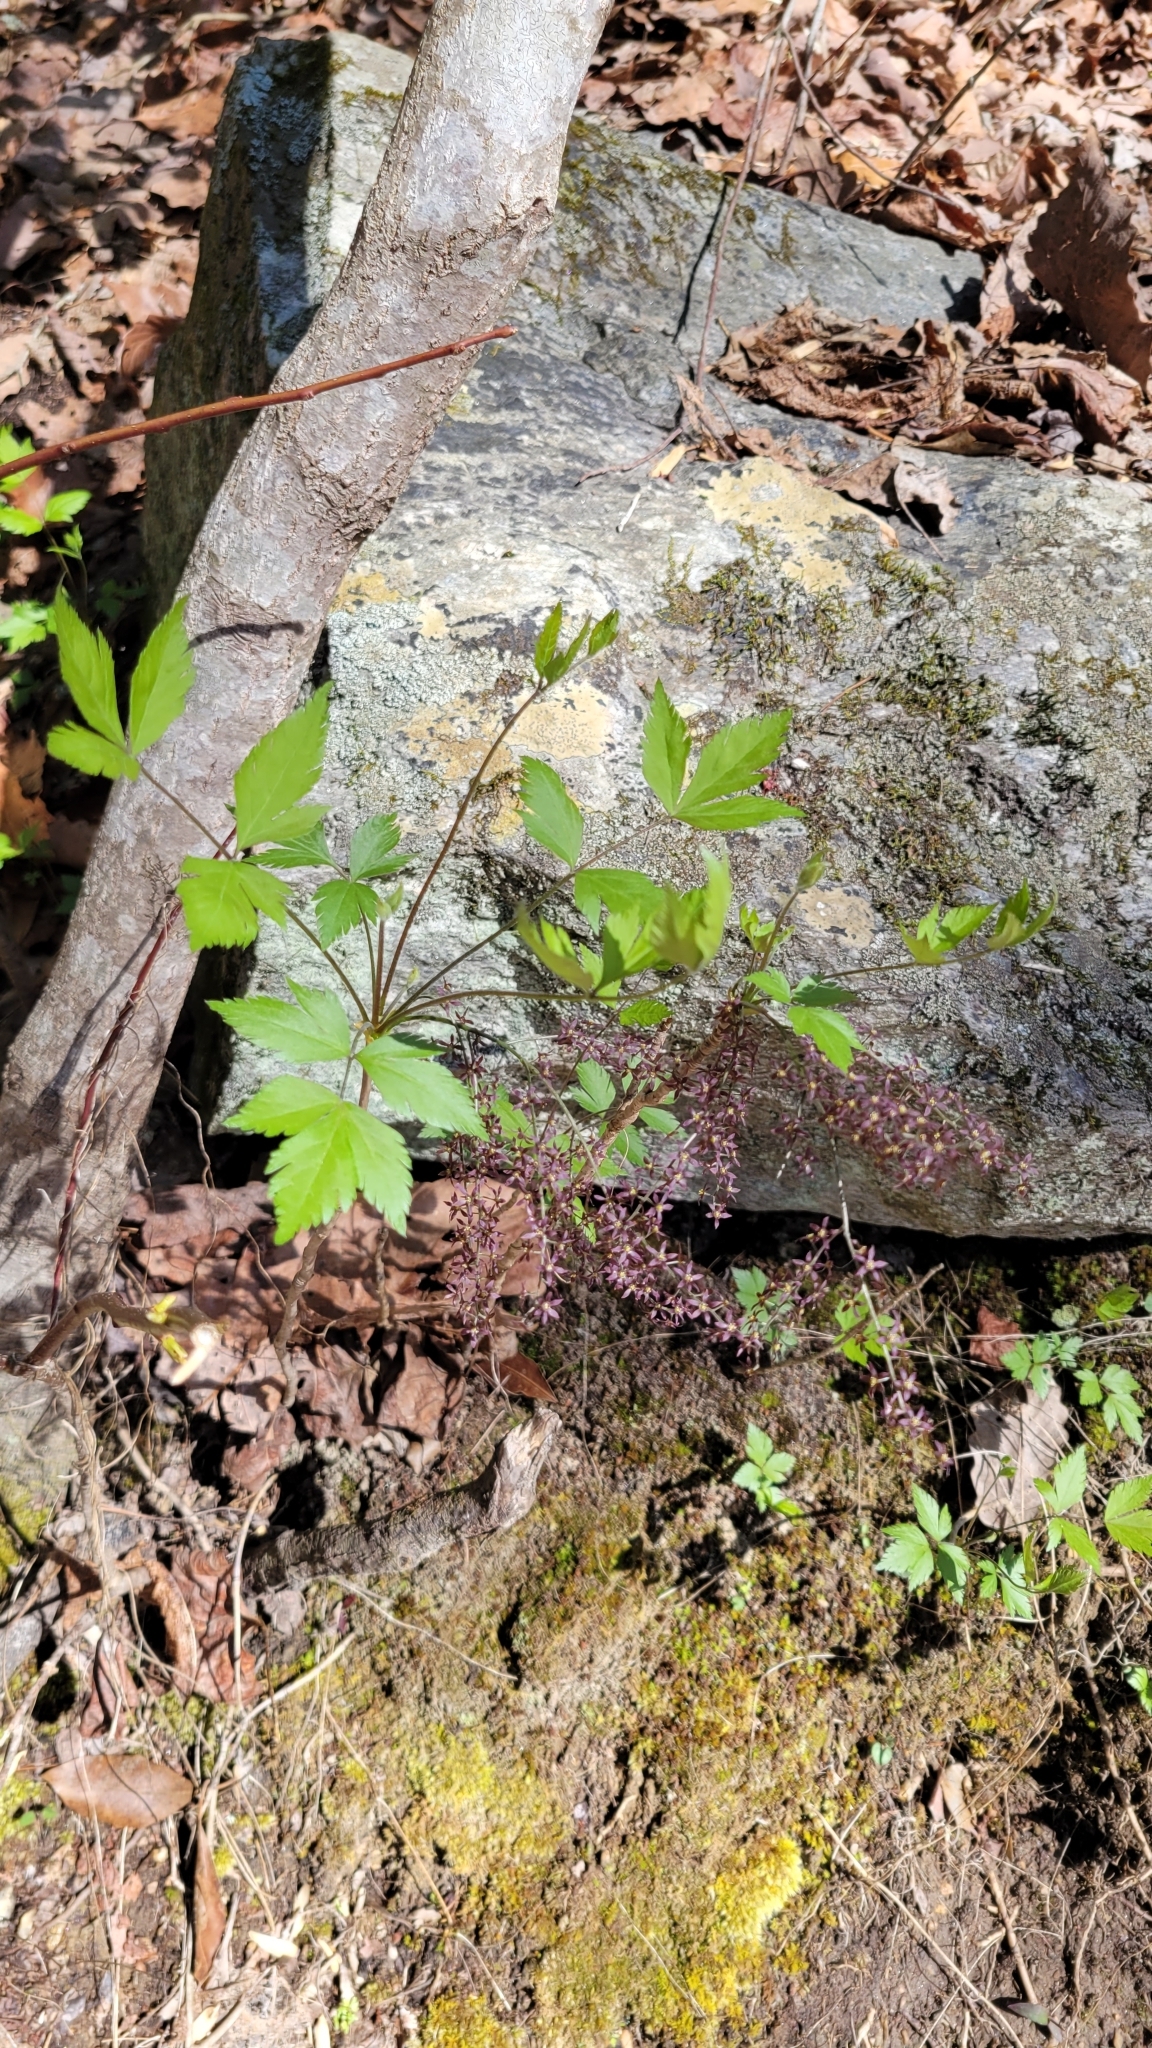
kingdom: Plantae
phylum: Tracheophyta
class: Magnoliopsida
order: Ranunculales
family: Ranunculaceae
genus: Xanthorhiza
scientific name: Xanthorhiza simplicissima
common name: Yellowroot
